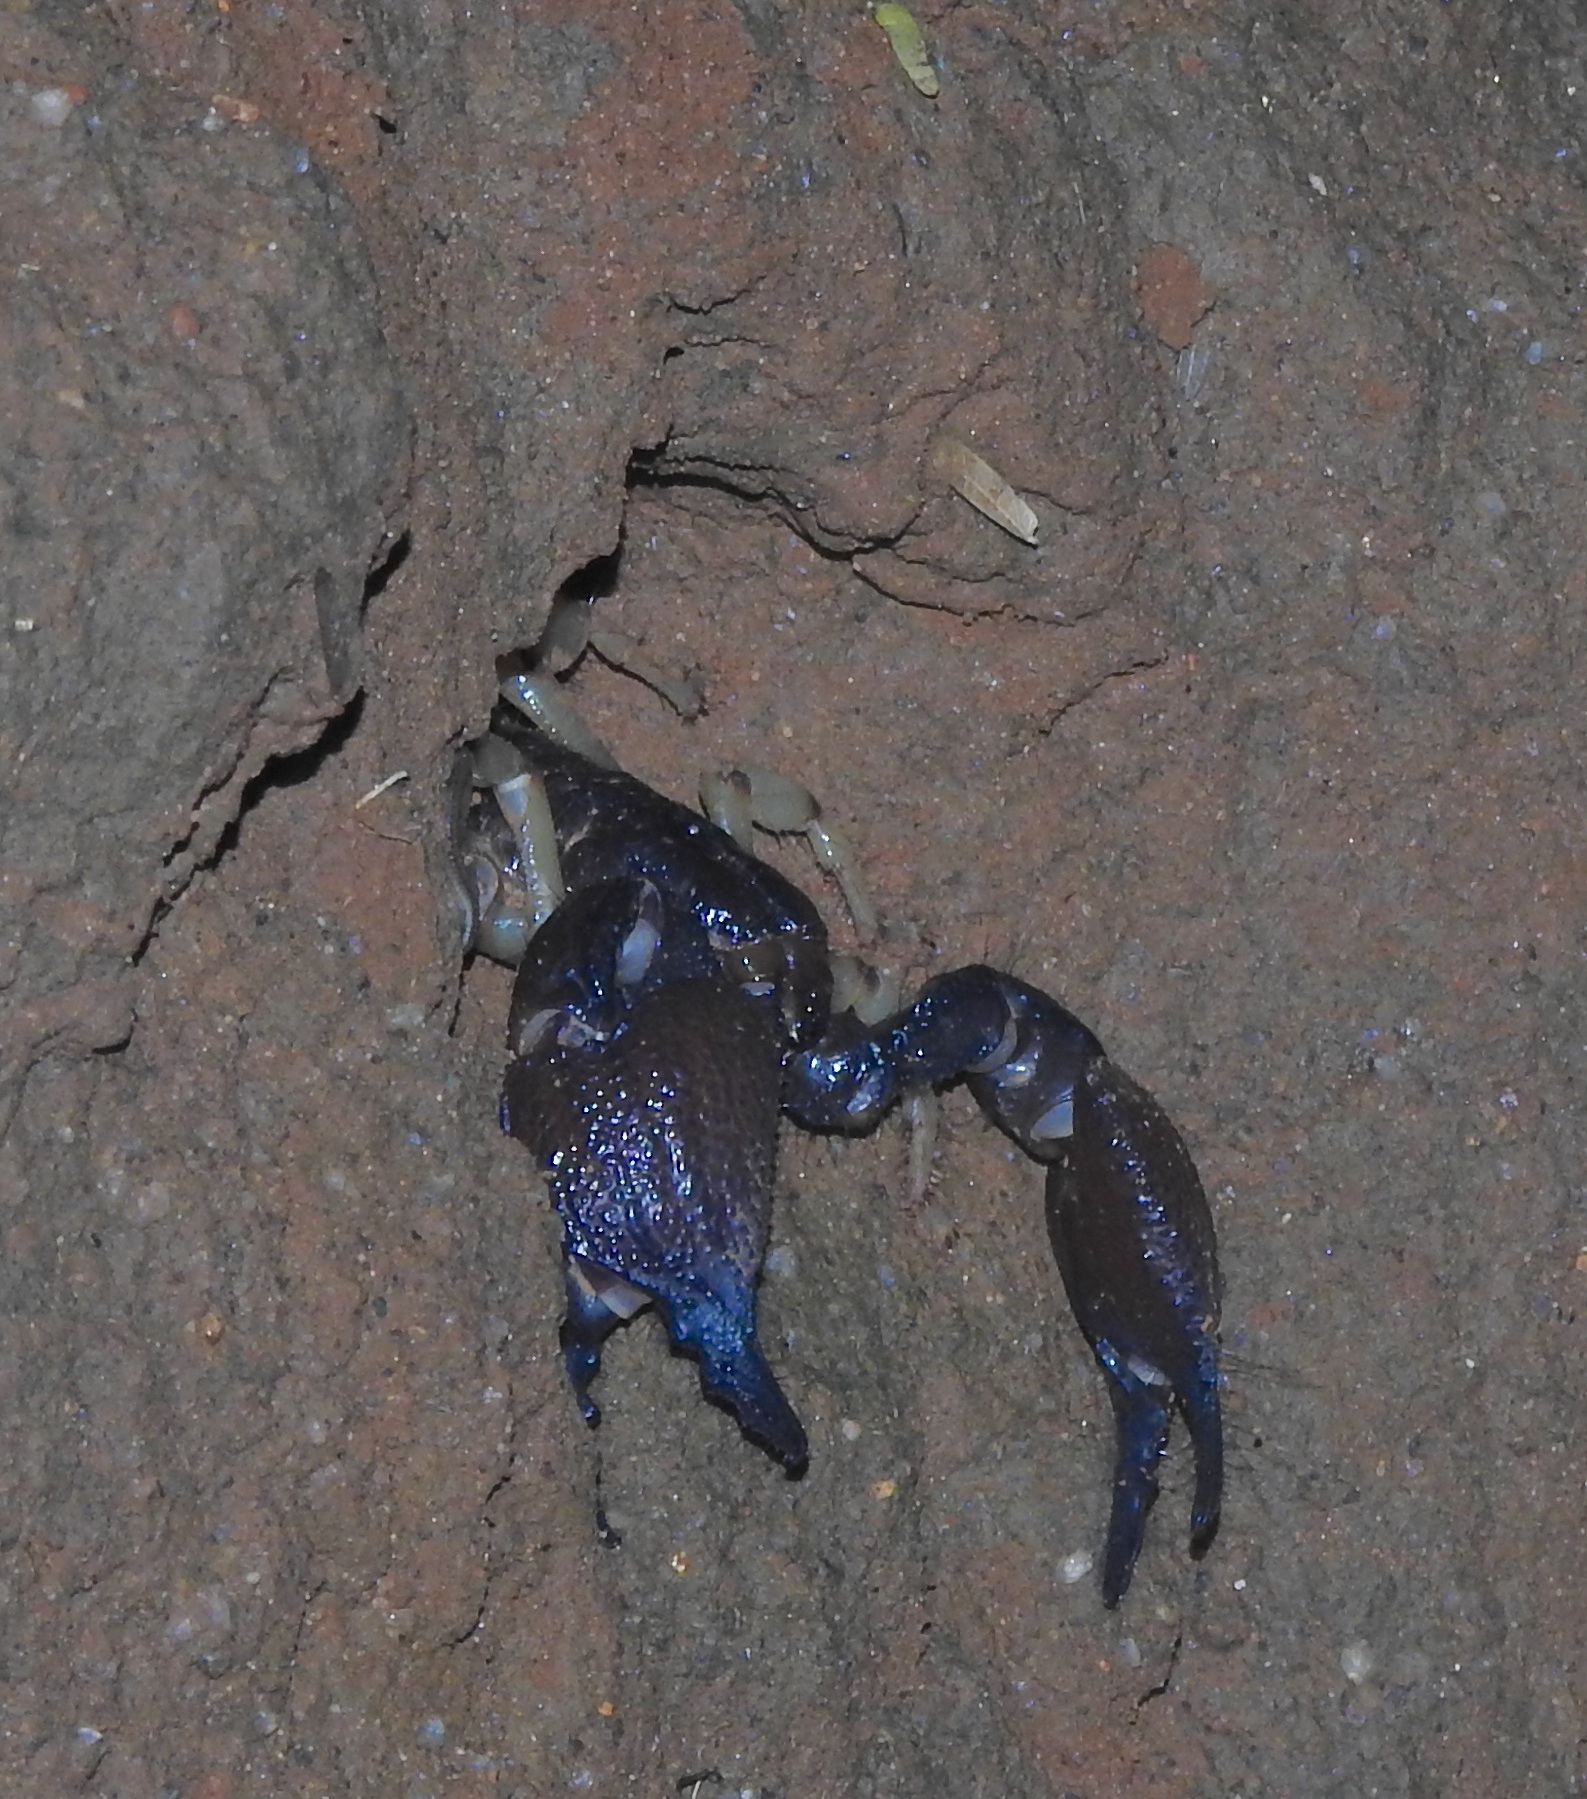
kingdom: Animalia
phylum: Arthropoda
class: Arachnida
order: Scorpiones
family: Scorpionidae
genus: Gigantometrus
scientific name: Gigantometrus swammerdami
